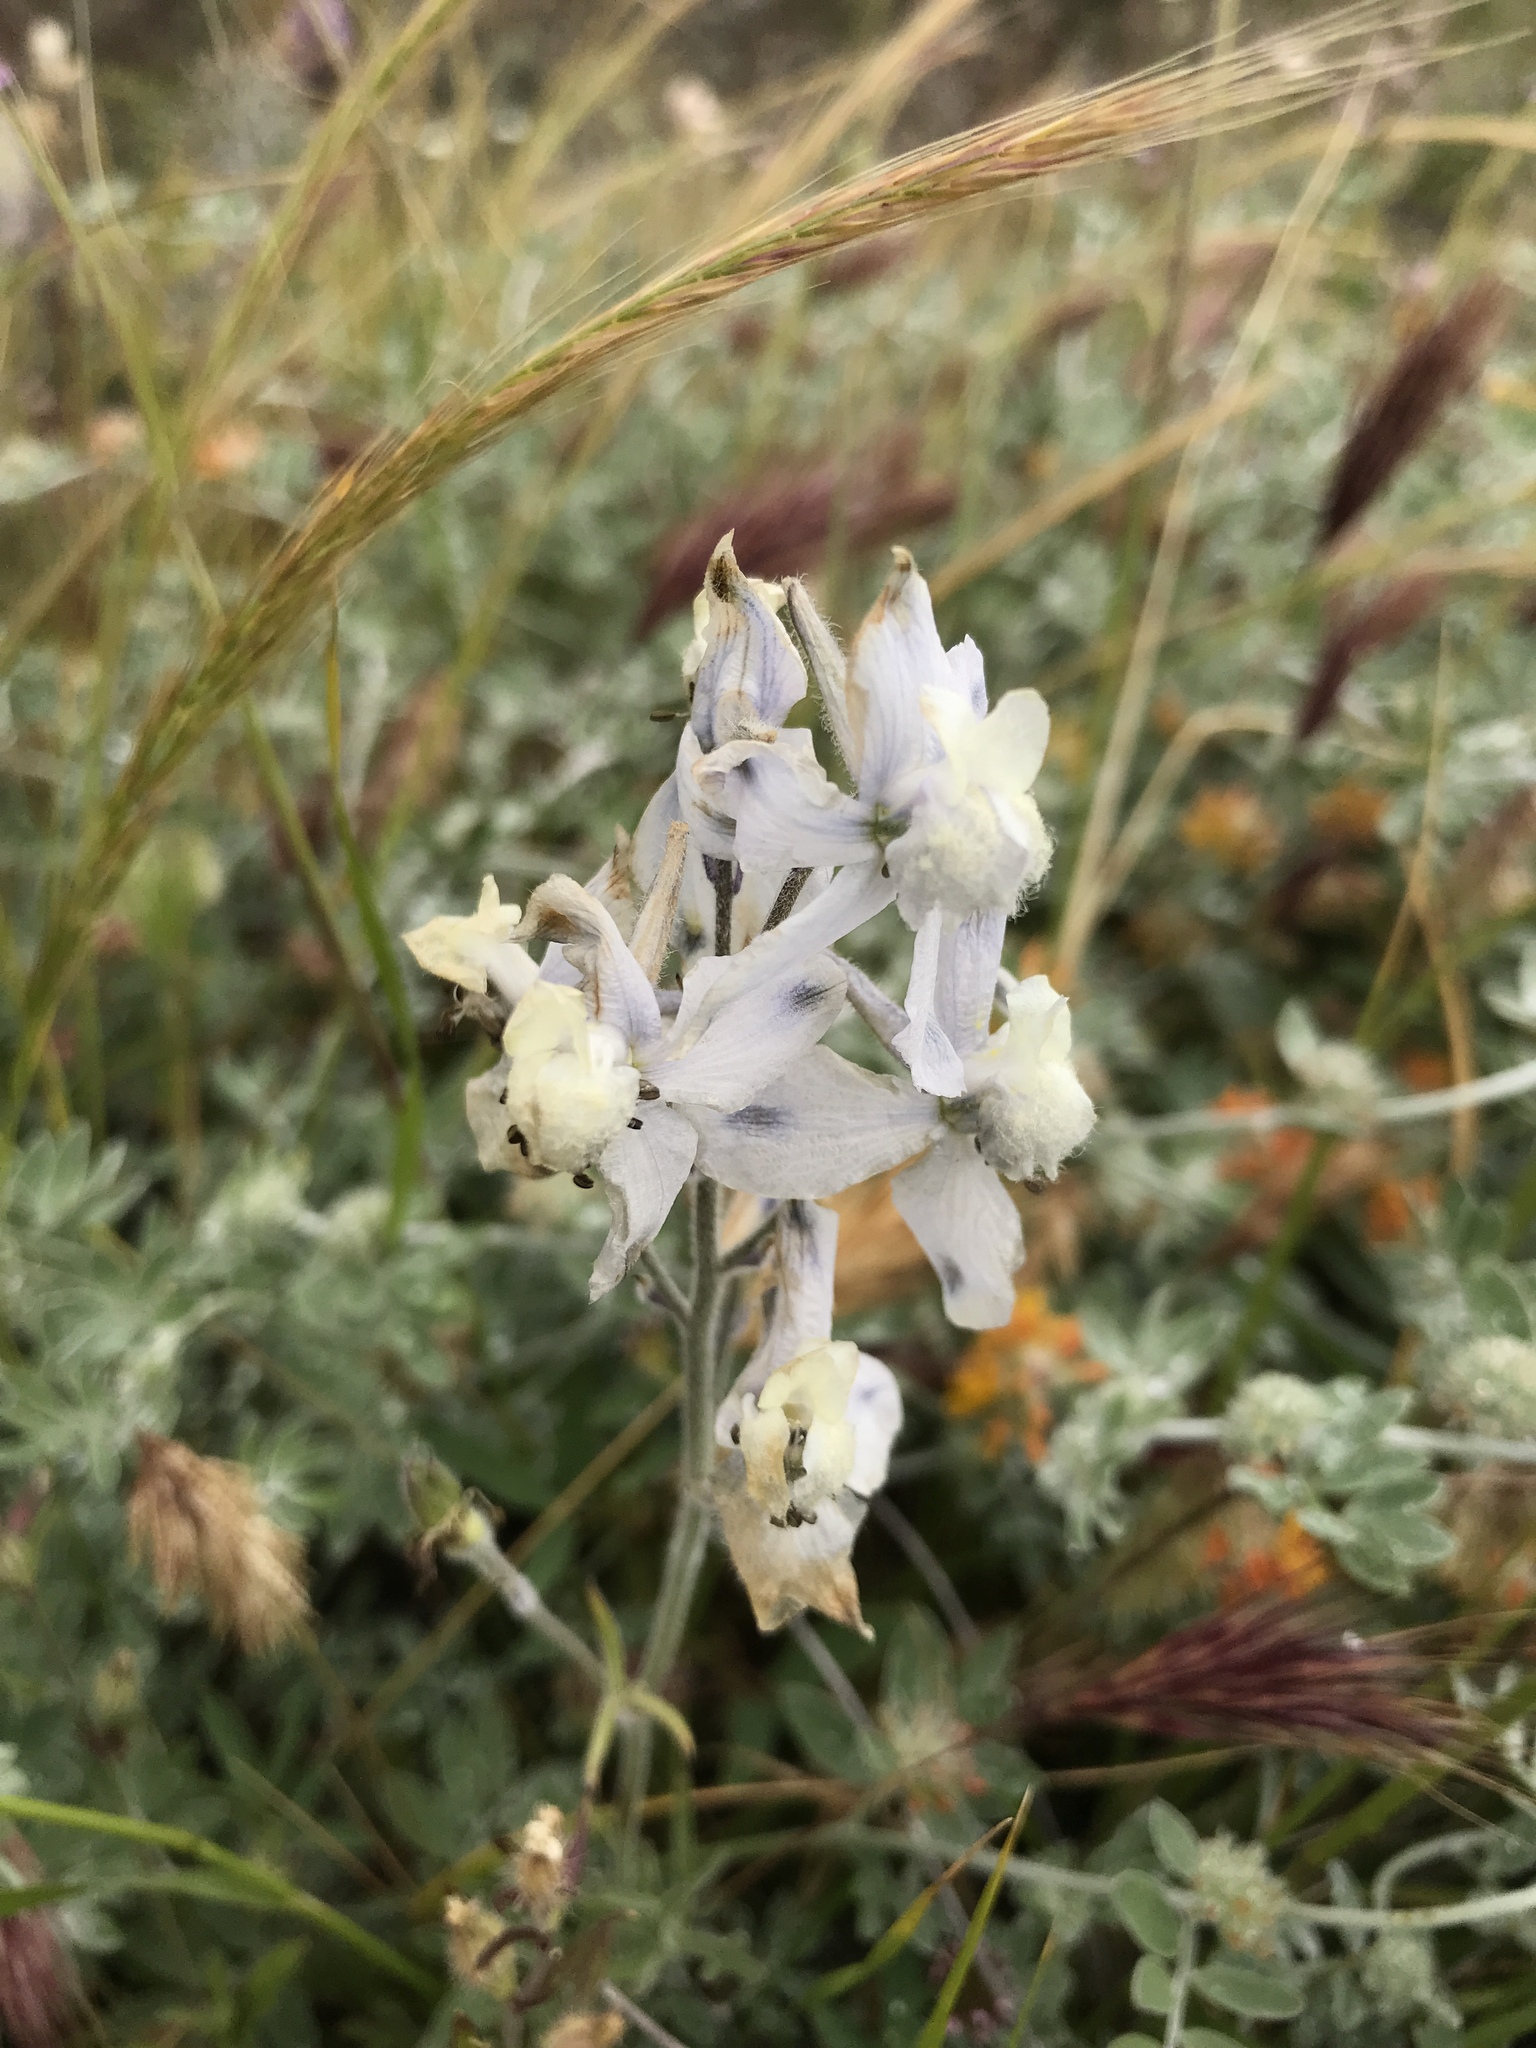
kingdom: Plantae
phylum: Tracheophyta
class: Magnoliopsida
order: Ranunculales
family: Ranunculaceae
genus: Delphinium
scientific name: Delphinium variegatum
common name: Royal larkspur
